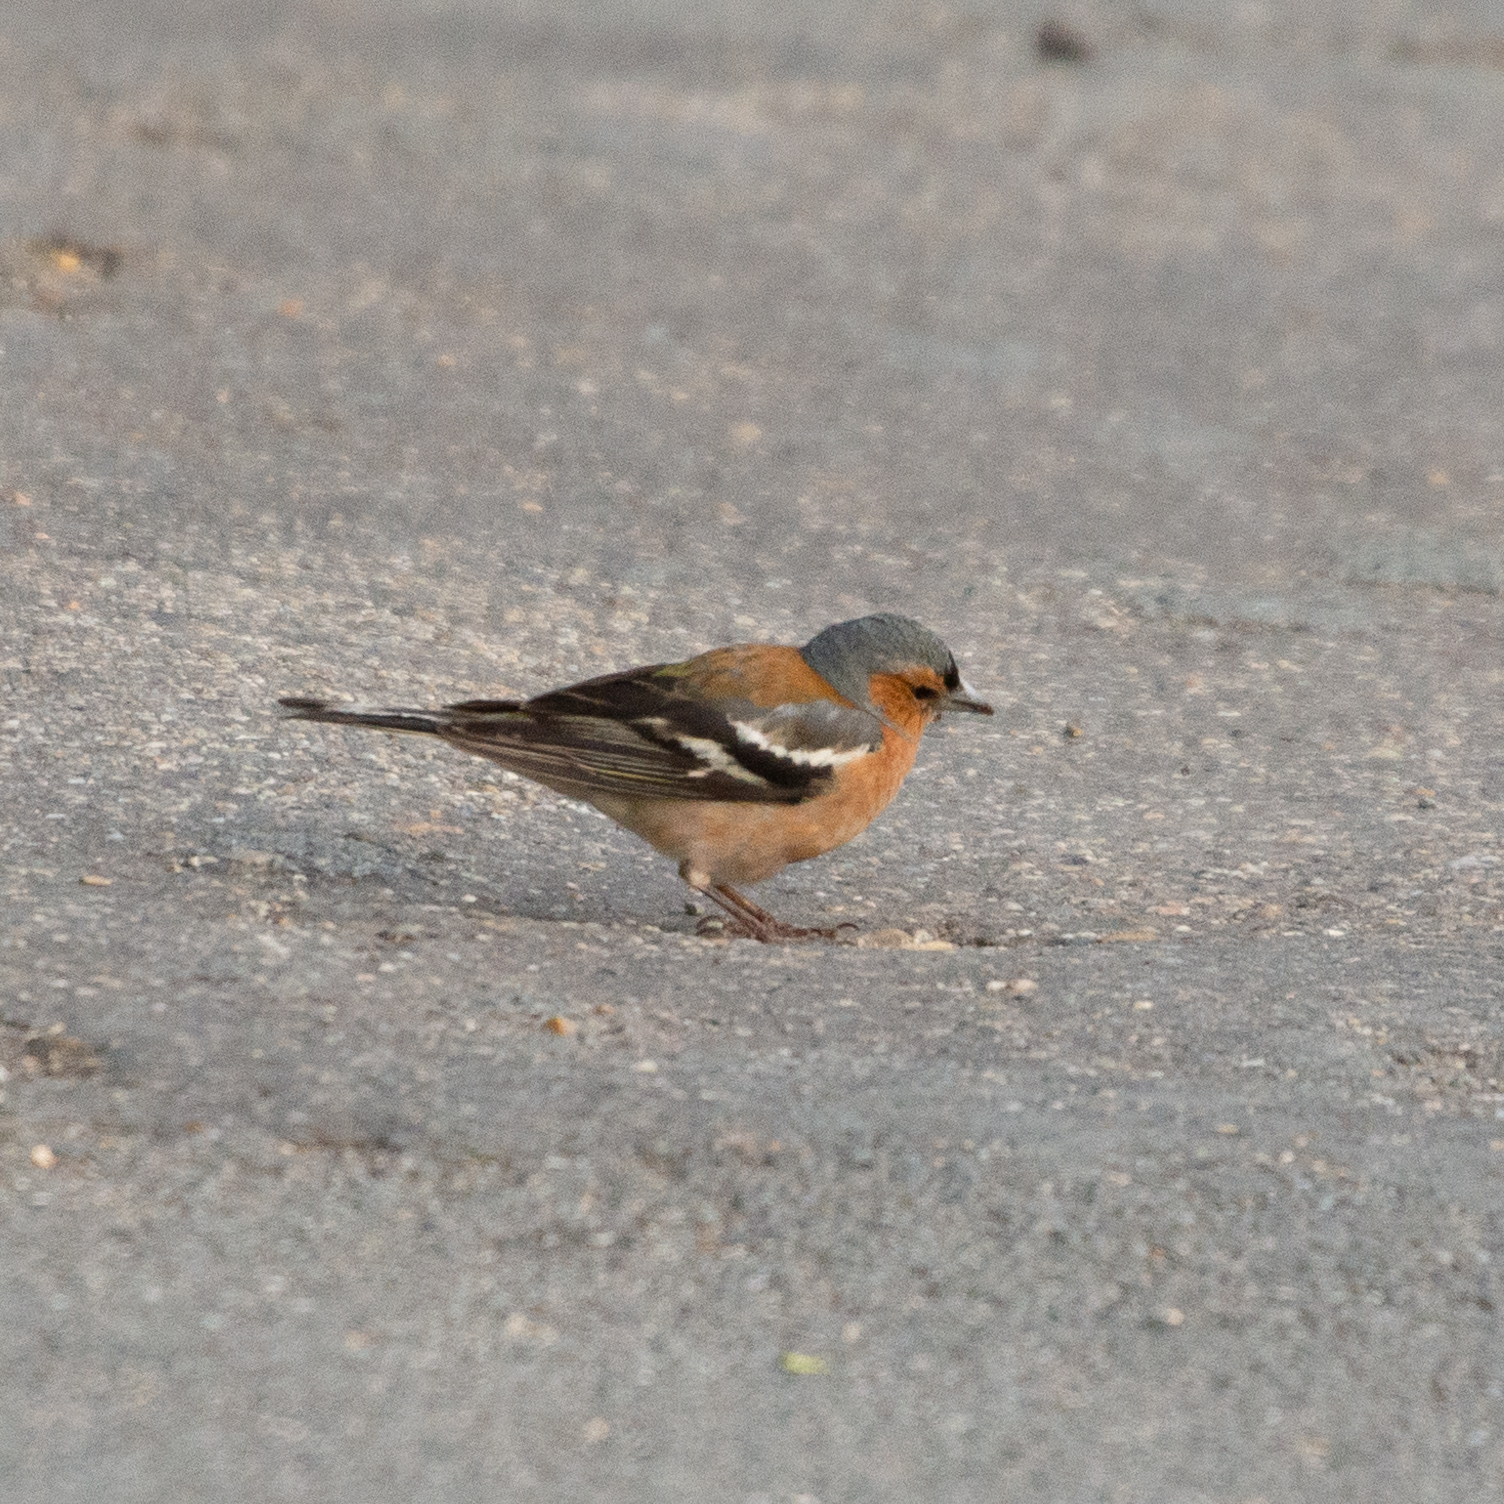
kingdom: Animalia
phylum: Chordata
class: Aves
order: Passeriformes
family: Fringillidae
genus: Fringilla
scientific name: Fringilla coelebs
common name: Common chaffinch
